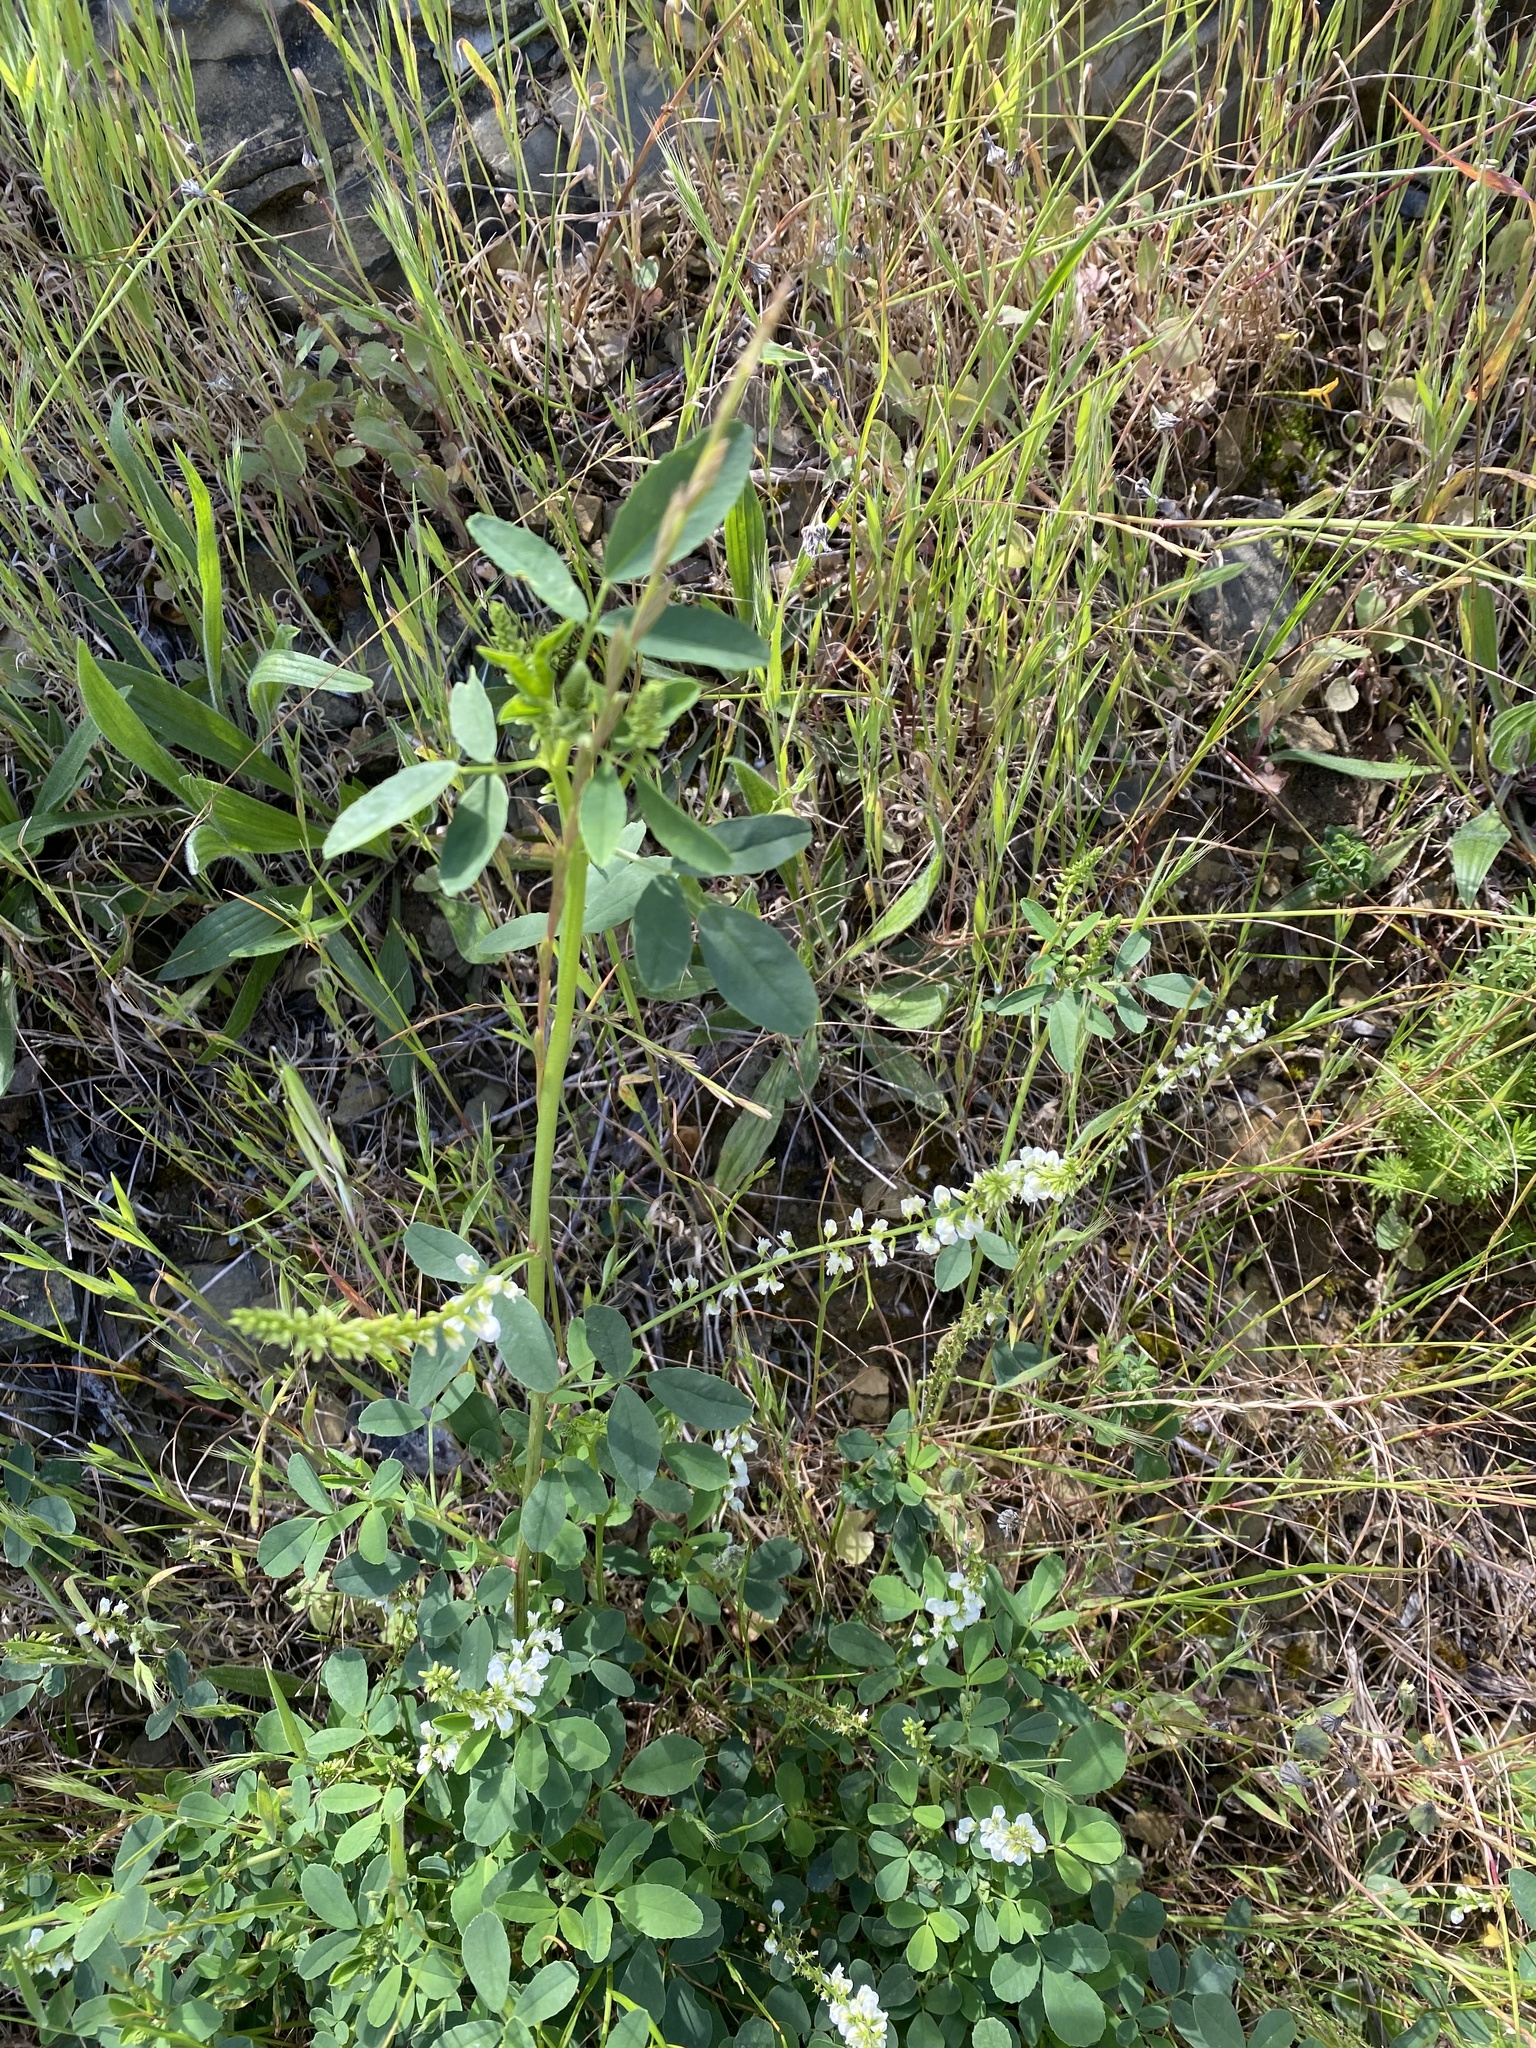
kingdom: Plantae
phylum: Tracheophyta
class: Magnoliopsida
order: Fabales
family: Fabaceae
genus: Melilotus
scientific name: Melilotus albus
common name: White melilot
